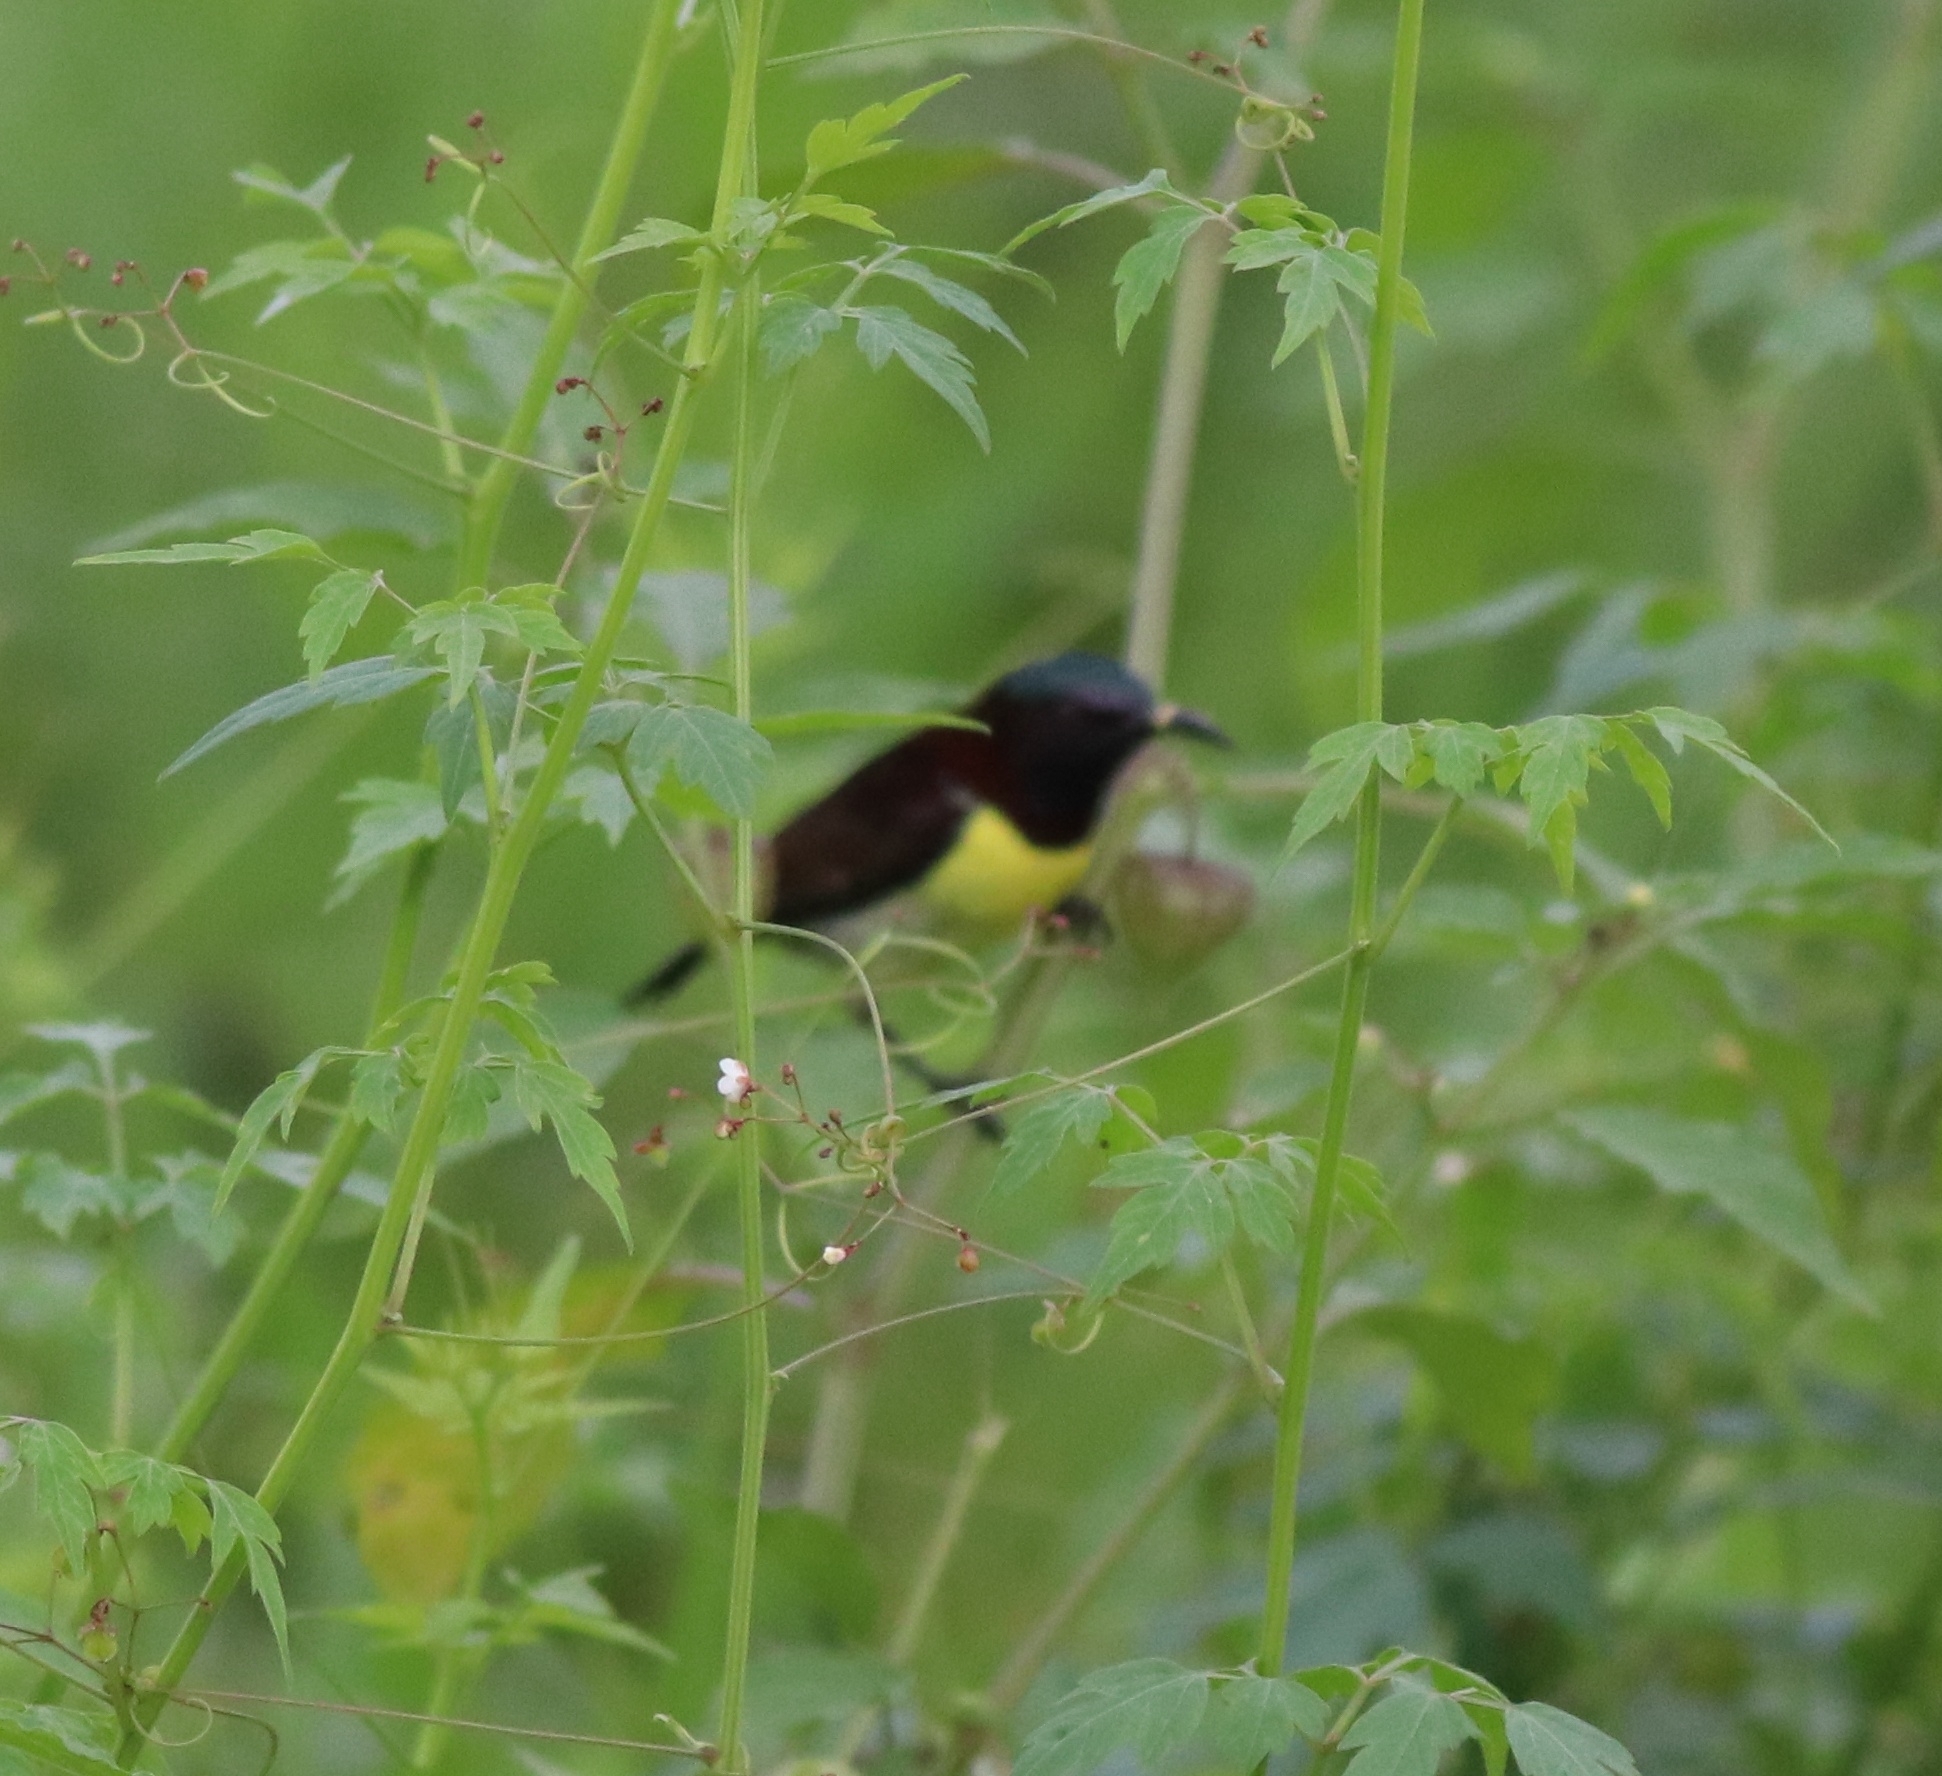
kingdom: Animalia
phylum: Chordata
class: Aves
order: Passeriformes
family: Nectariniidae
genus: Leptocoma
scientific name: Leptocoma zeylonica
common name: Purple-rumped sunbird
